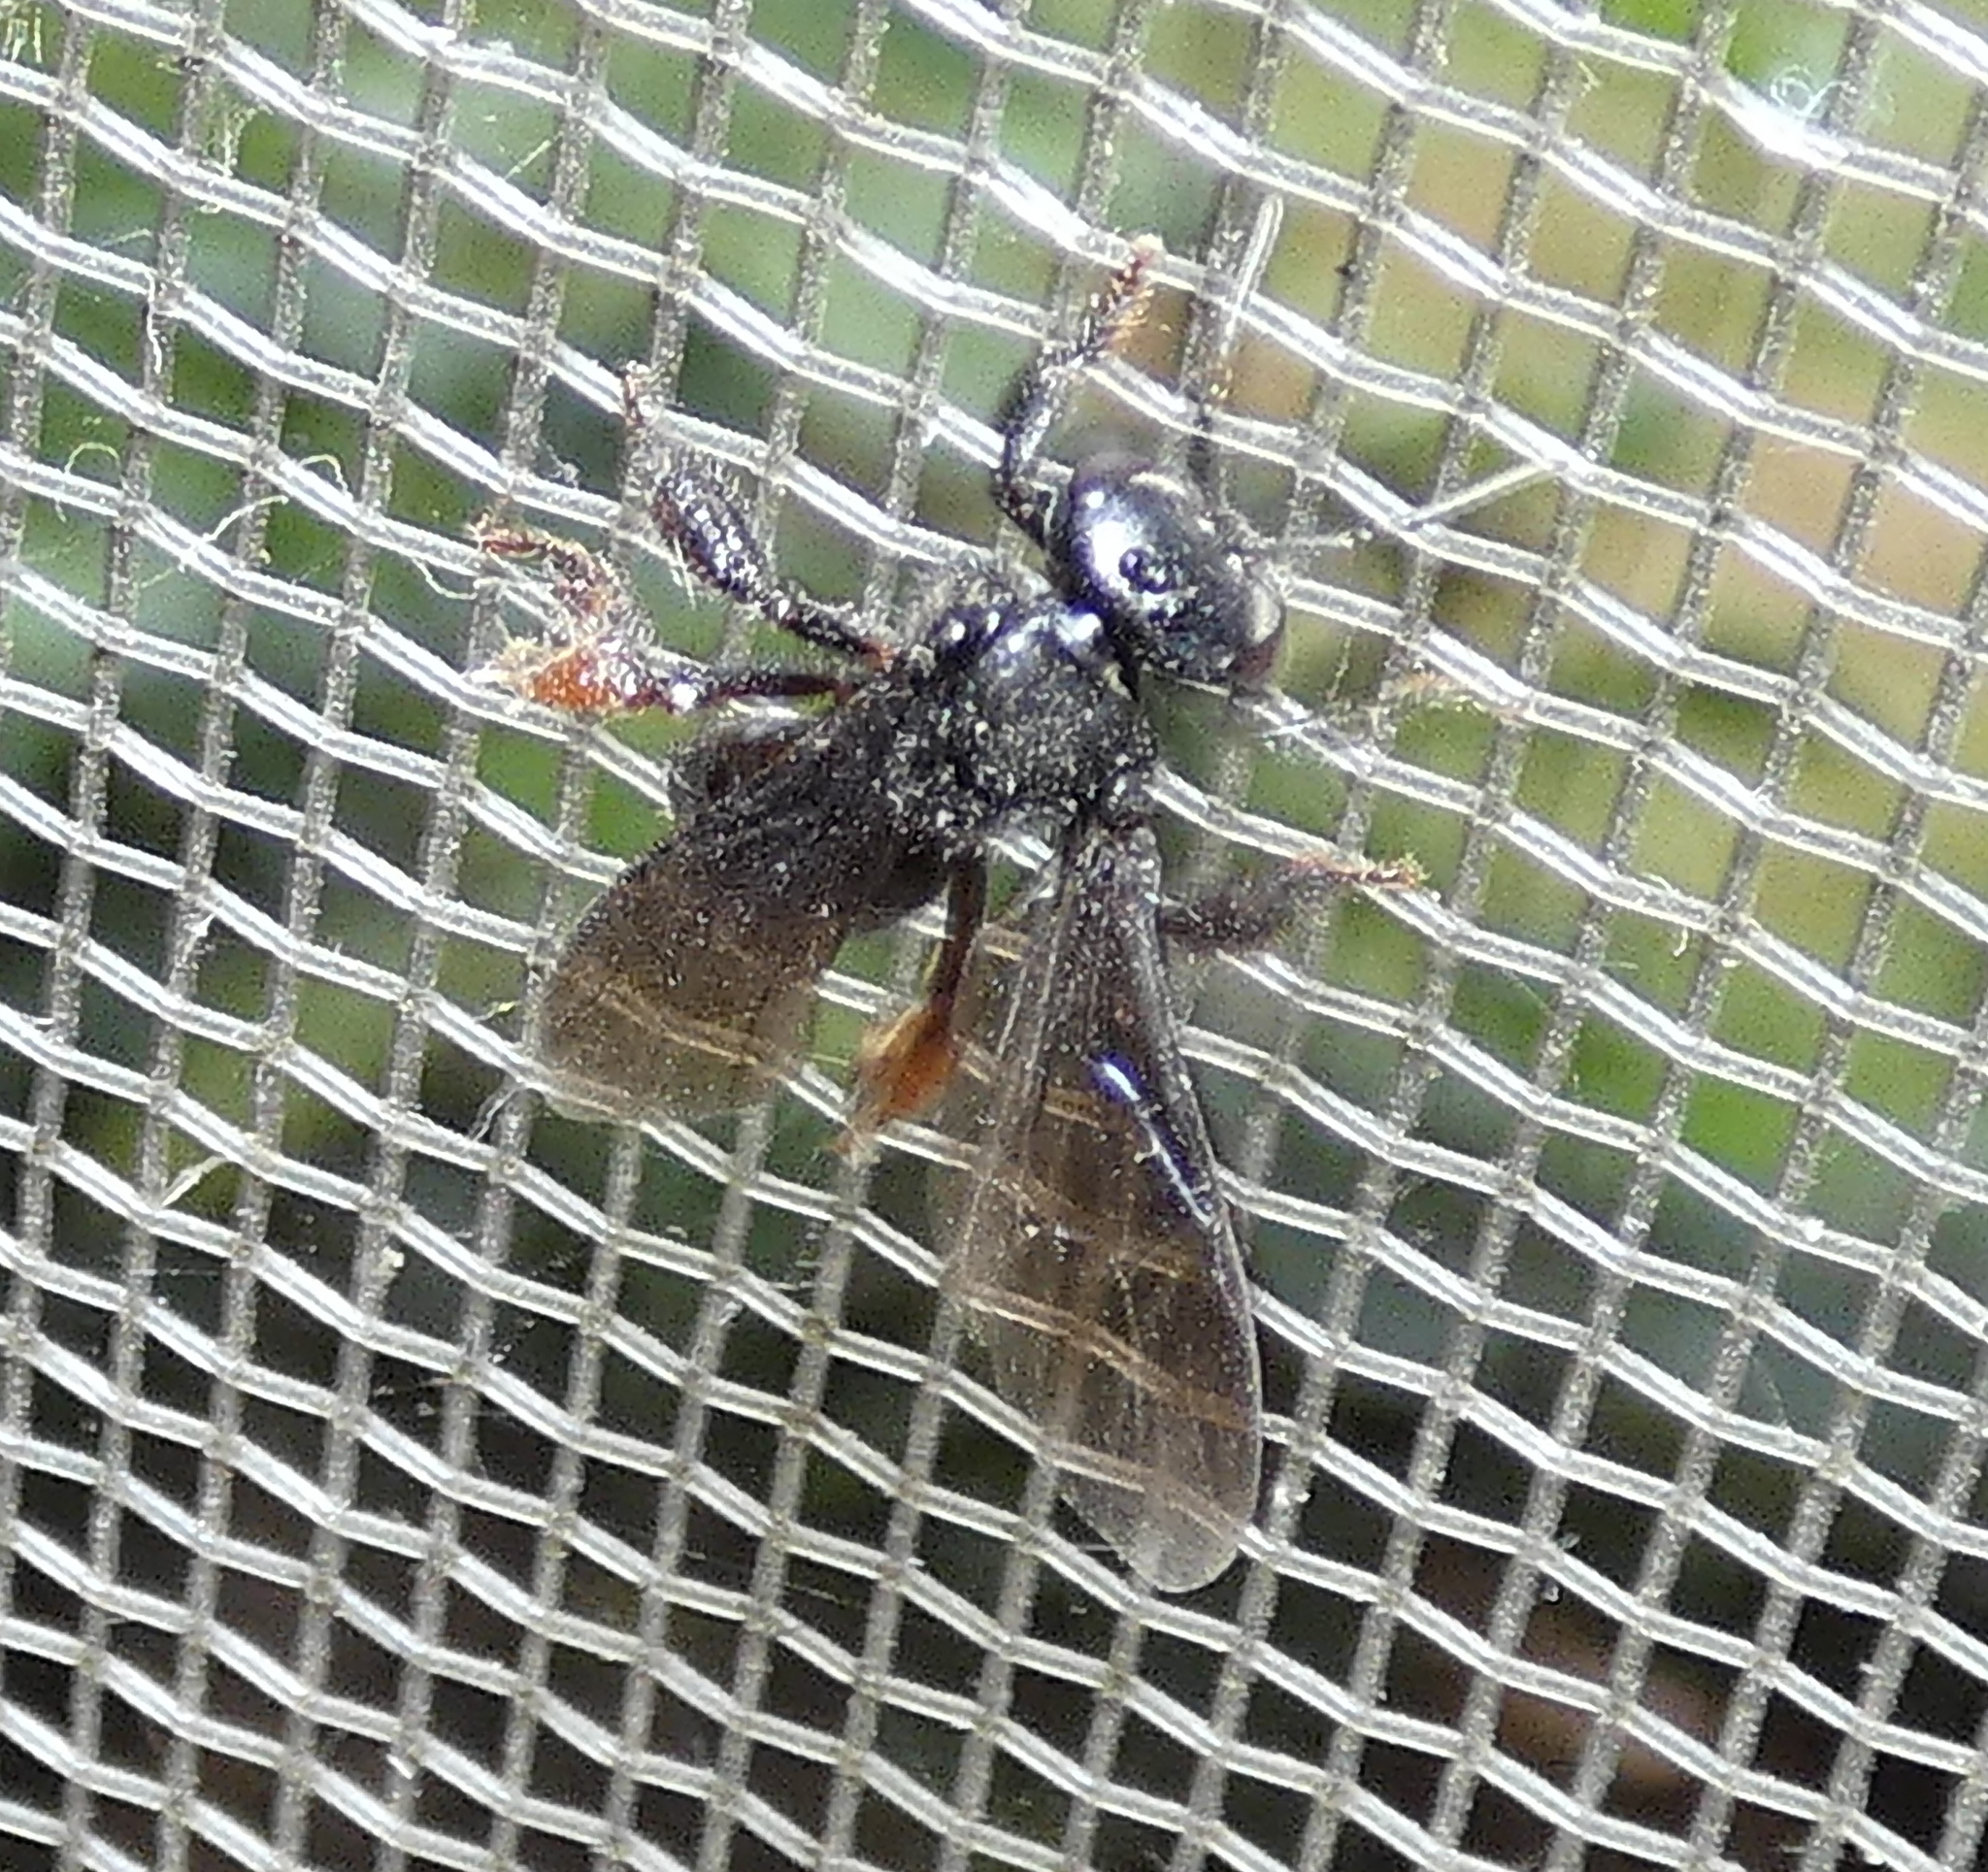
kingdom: Animalia
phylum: Arthropoda
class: Insecta
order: Hymenoptera
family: Apidae
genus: Trigona
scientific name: Trigona spinipes
